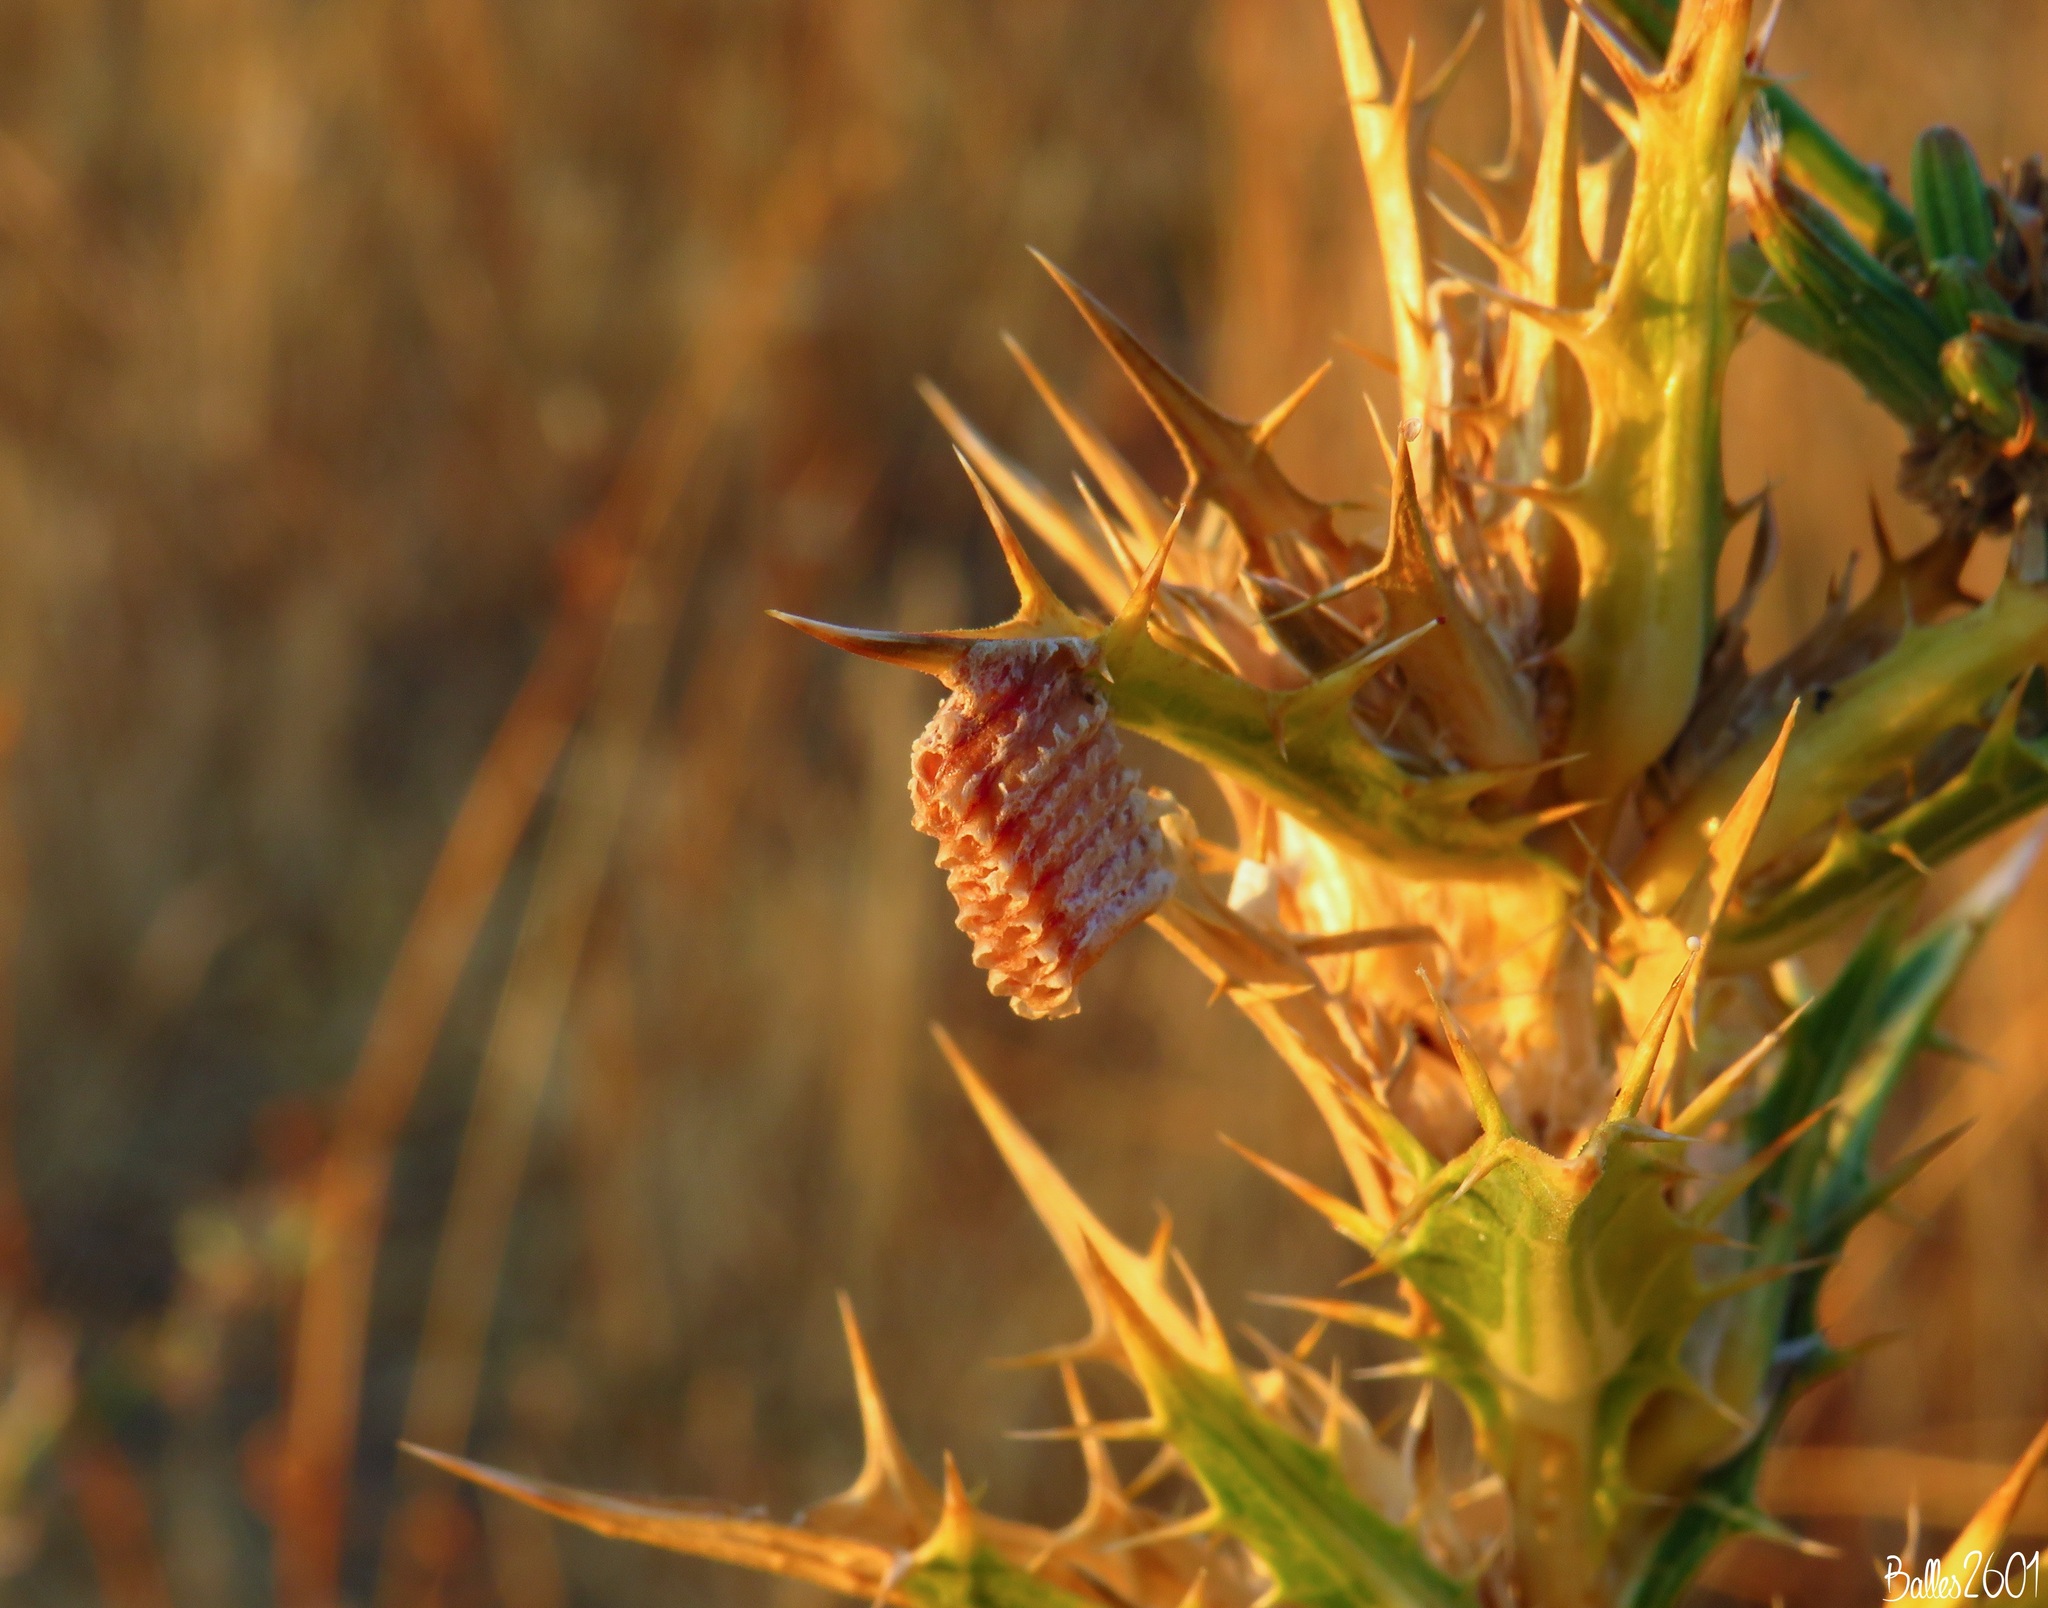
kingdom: Animalia
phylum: Arthropoda
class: Insecta
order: Mantodea
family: Empusidae
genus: Empusa
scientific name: Empusa pennata
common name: Conehead mantis
